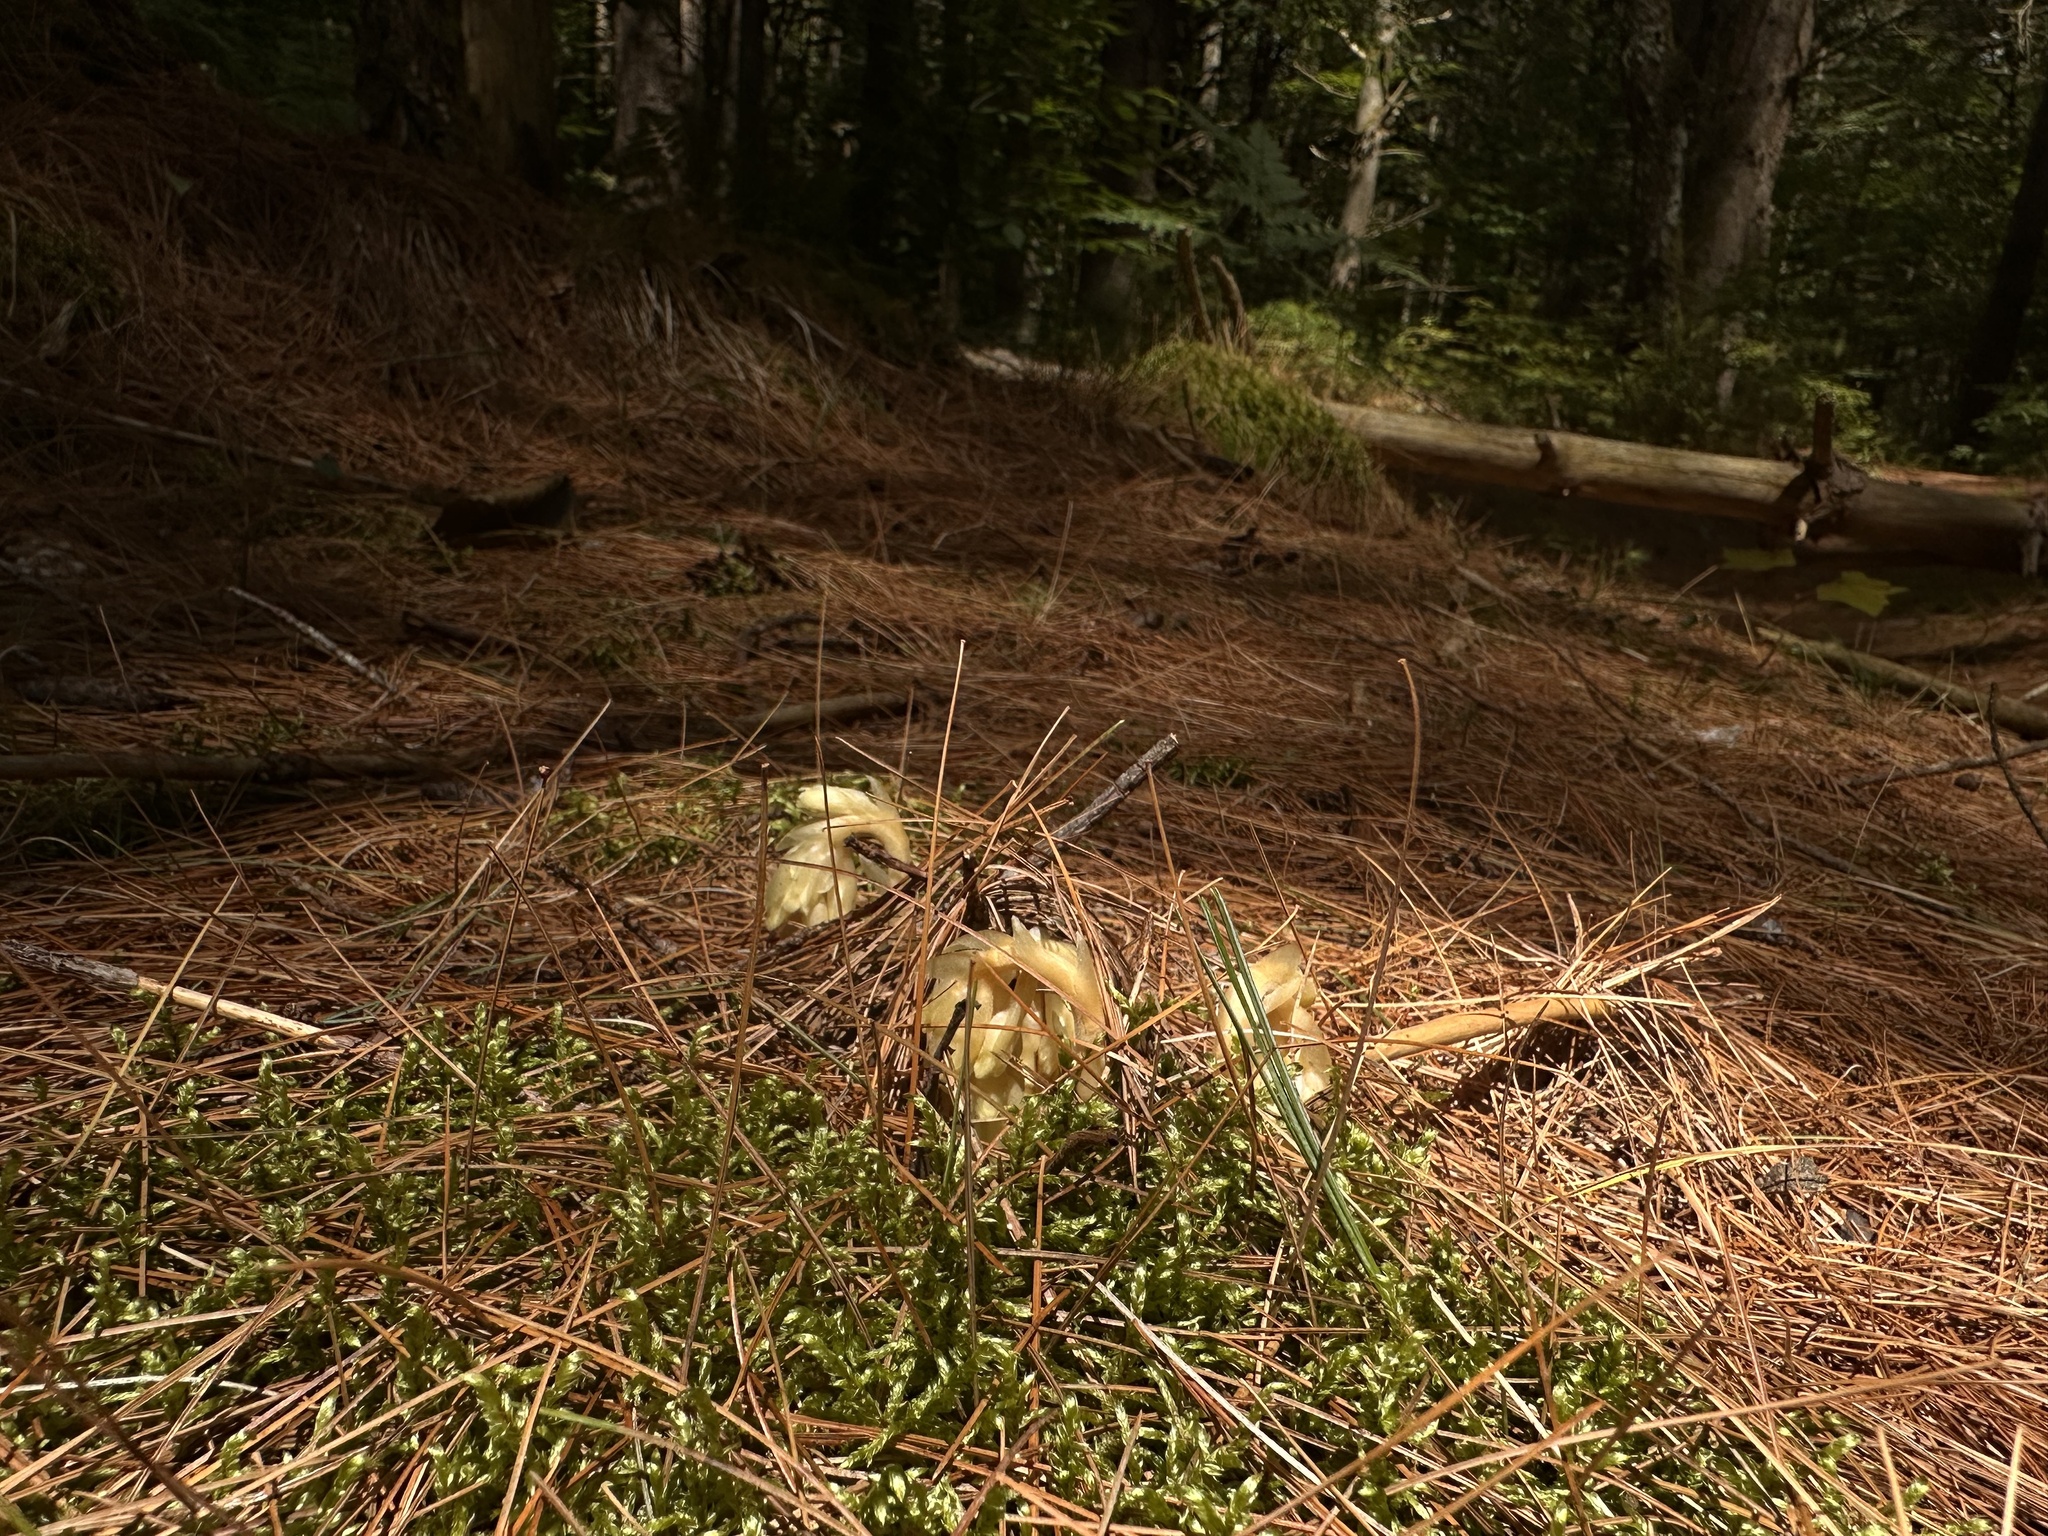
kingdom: Plantae
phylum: Tracheophyta
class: Magnoliopsida
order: Ericales
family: Ericaceae
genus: Hypopitys
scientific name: Hypopitys monotropa
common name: Yellow bird's-nest
